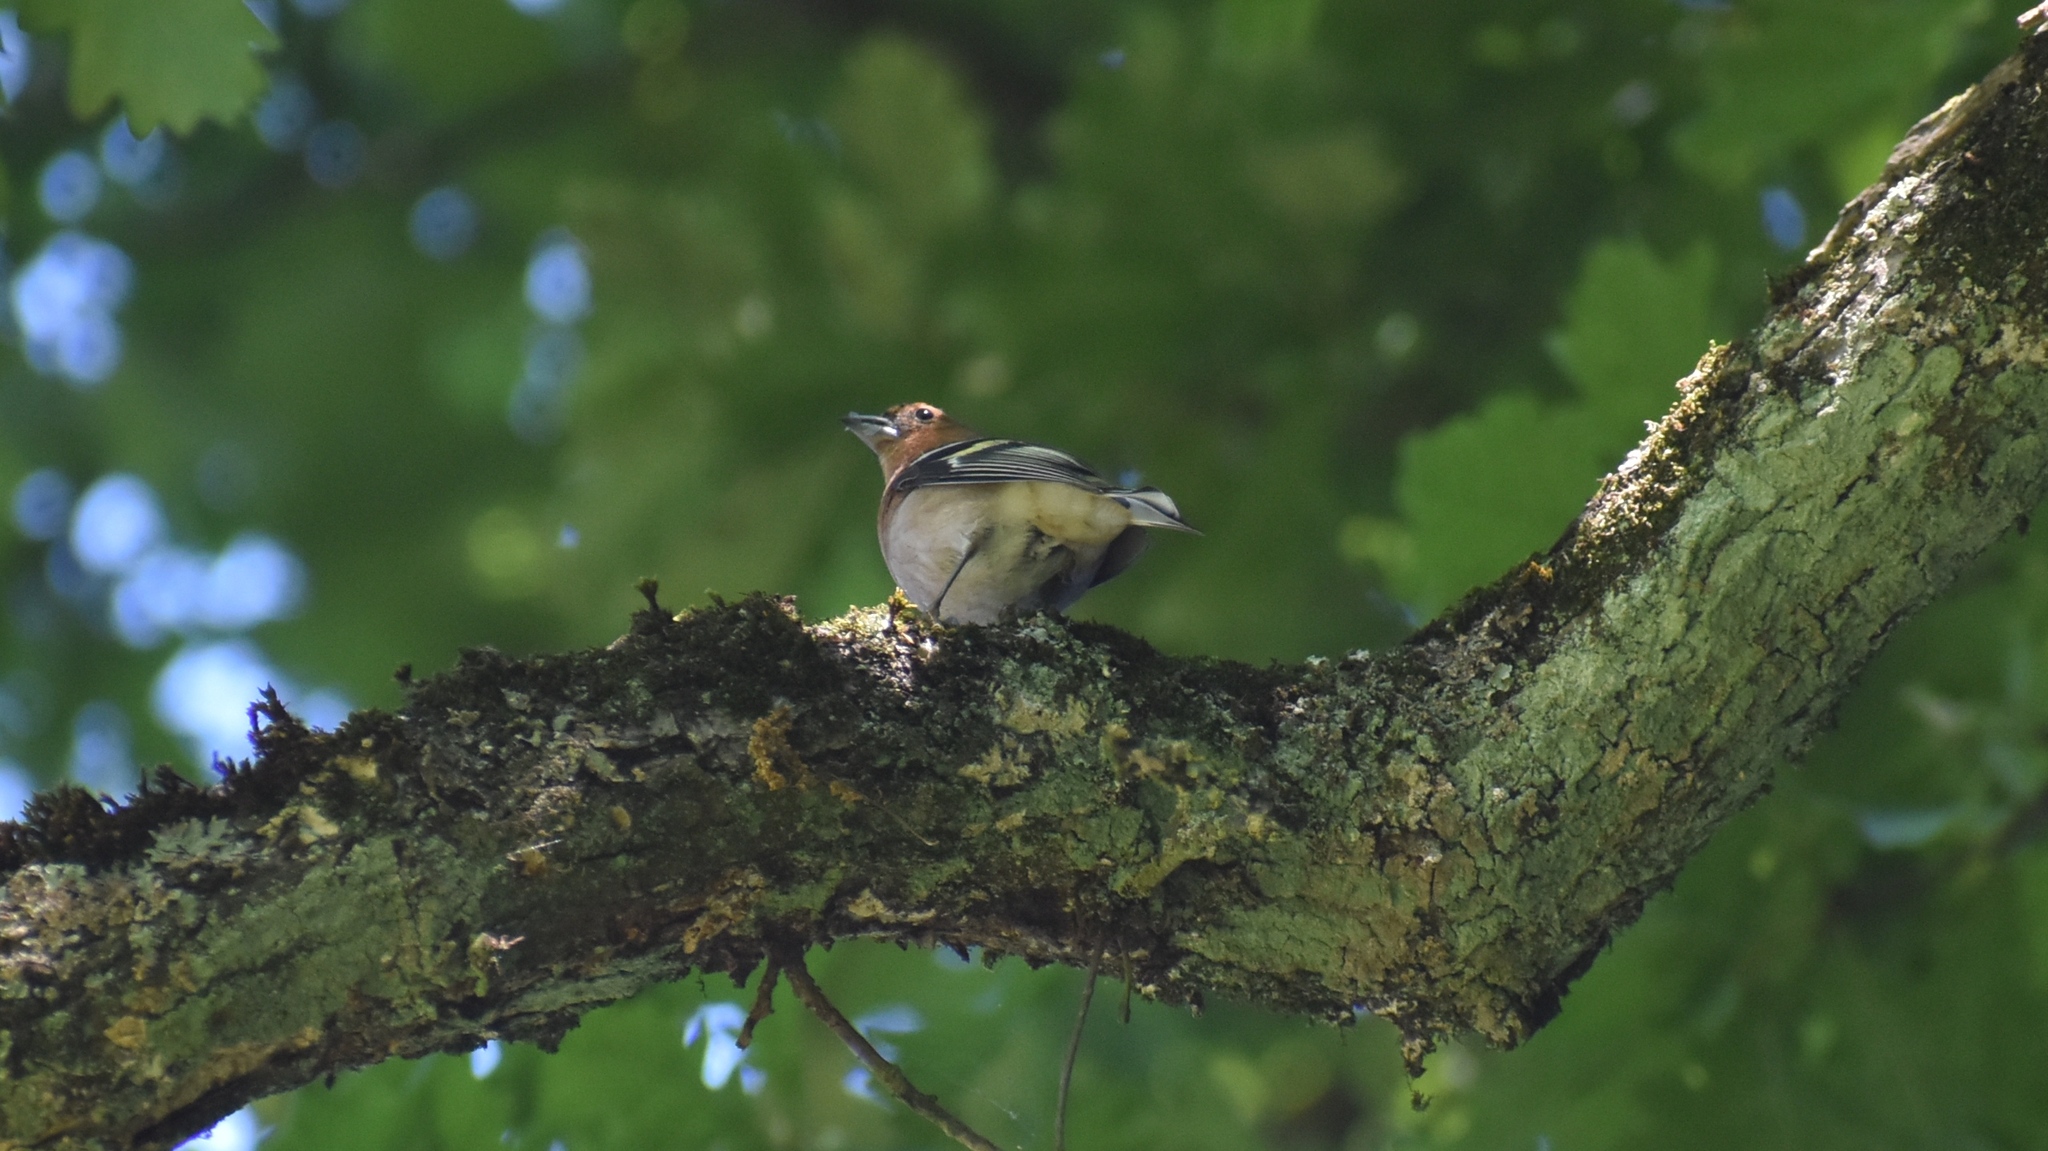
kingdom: Animalia
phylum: Chordata
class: Aves
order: Passeriformes
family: Fringillidae
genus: Fringilla
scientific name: Fringilla coelebs
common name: Common chaffinch
